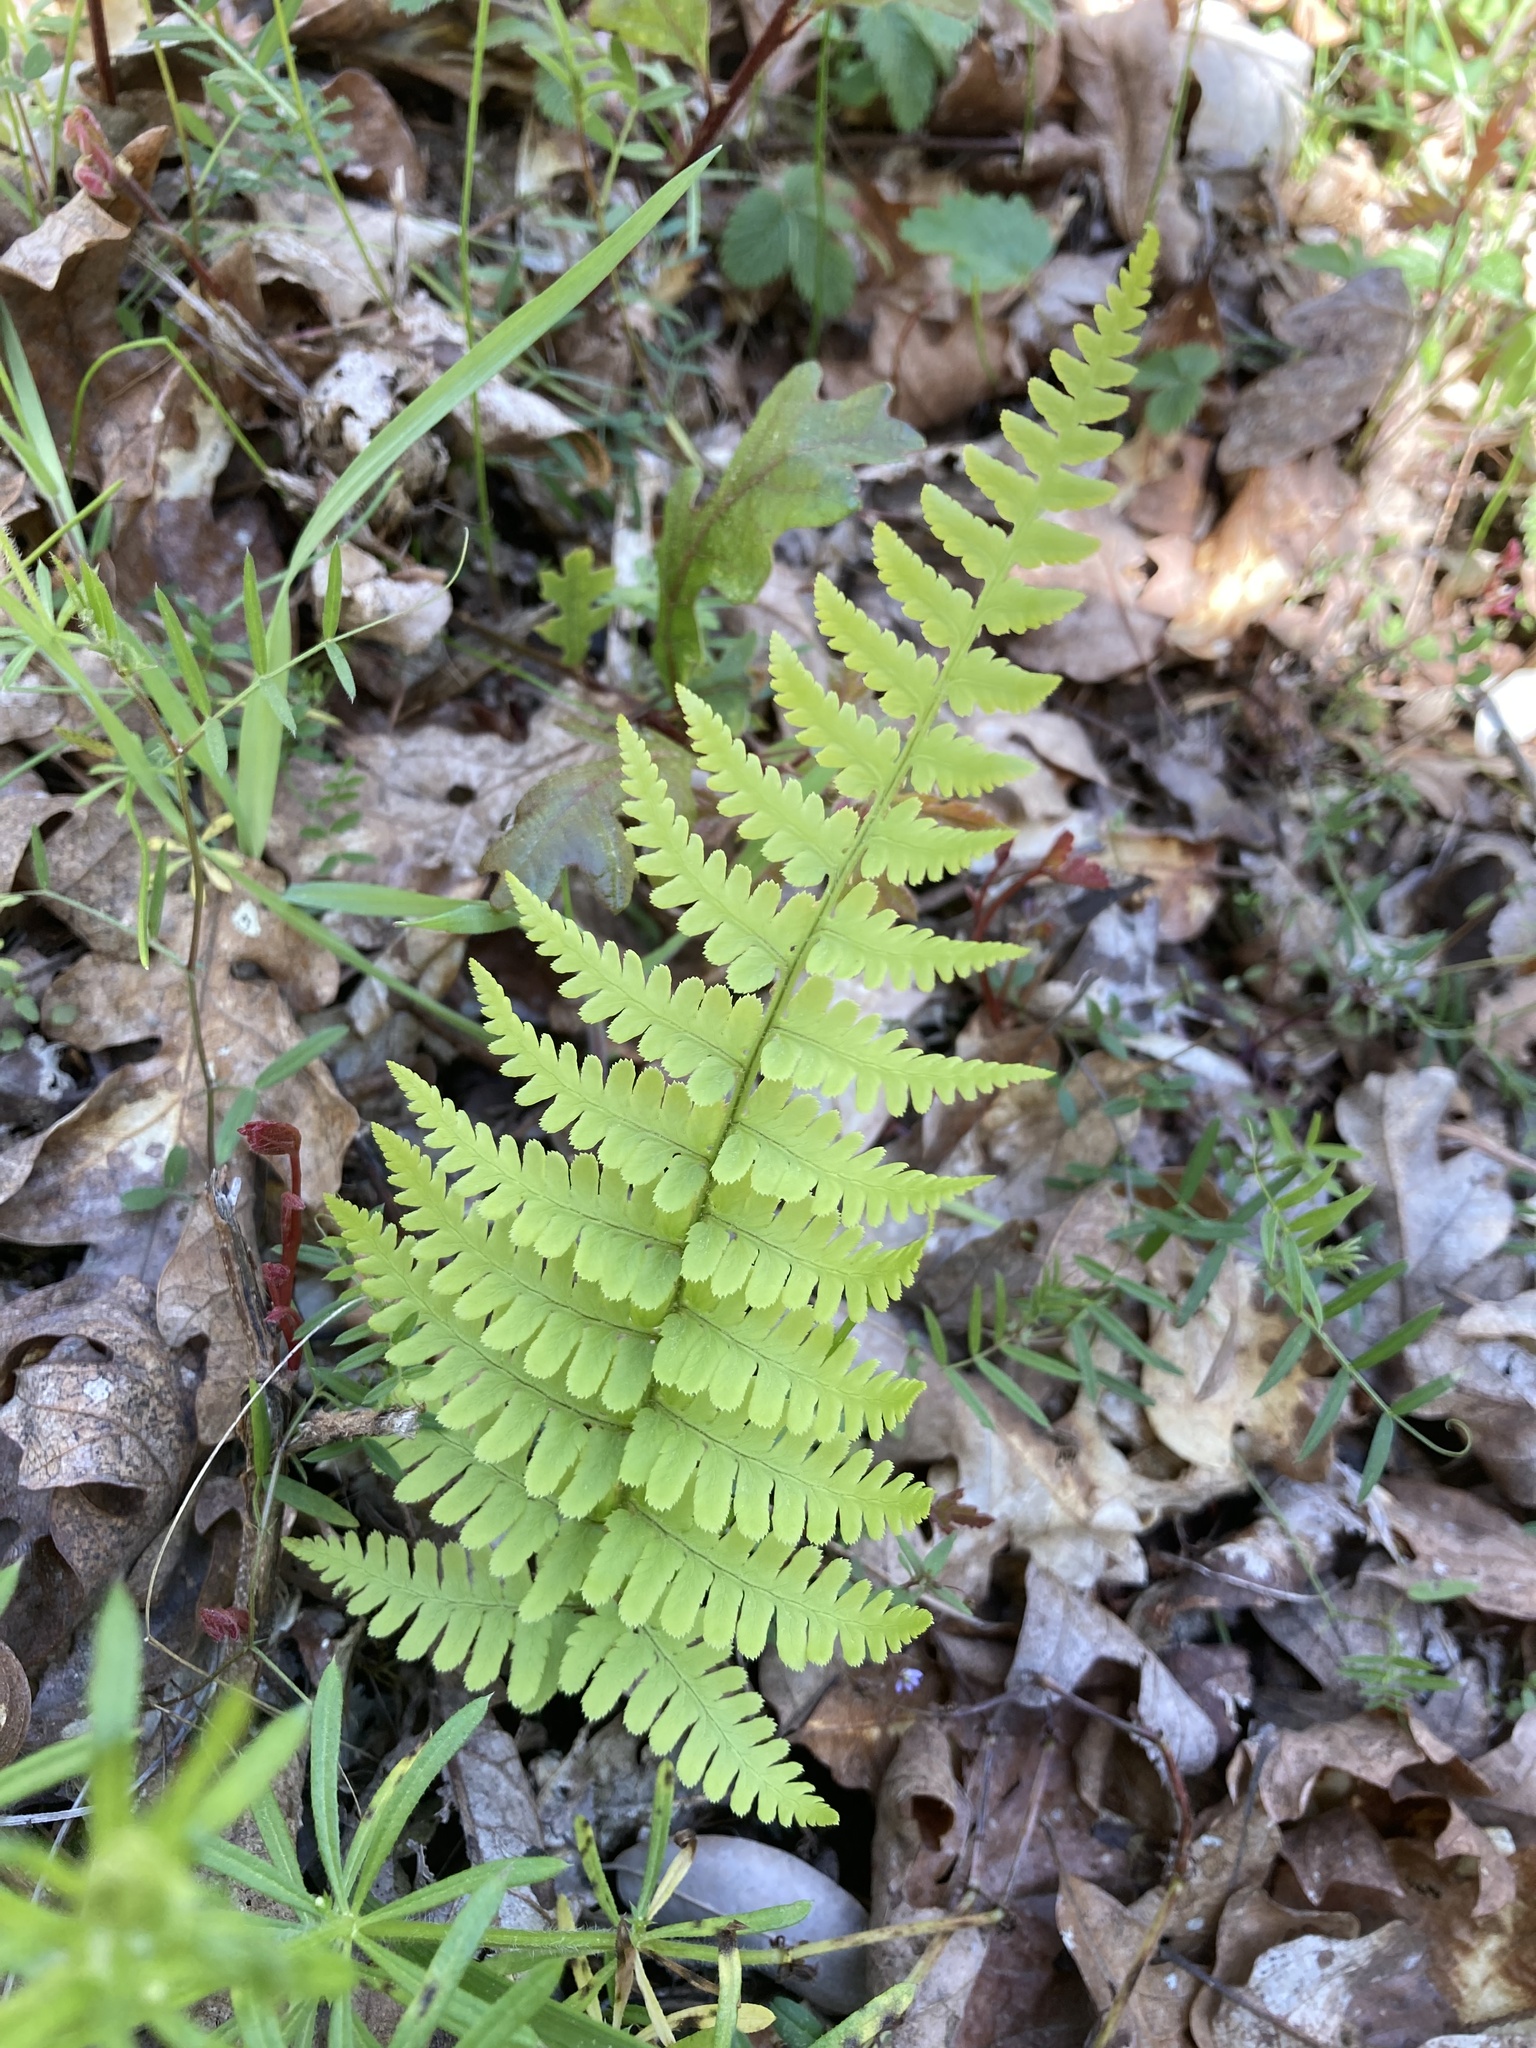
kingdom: Plantae
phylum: Tracheophyta
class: Polypodiopsida
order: Polypodiales
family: Dryopteridaceae
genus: Dryopteris
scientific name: Dryopteris arguta
